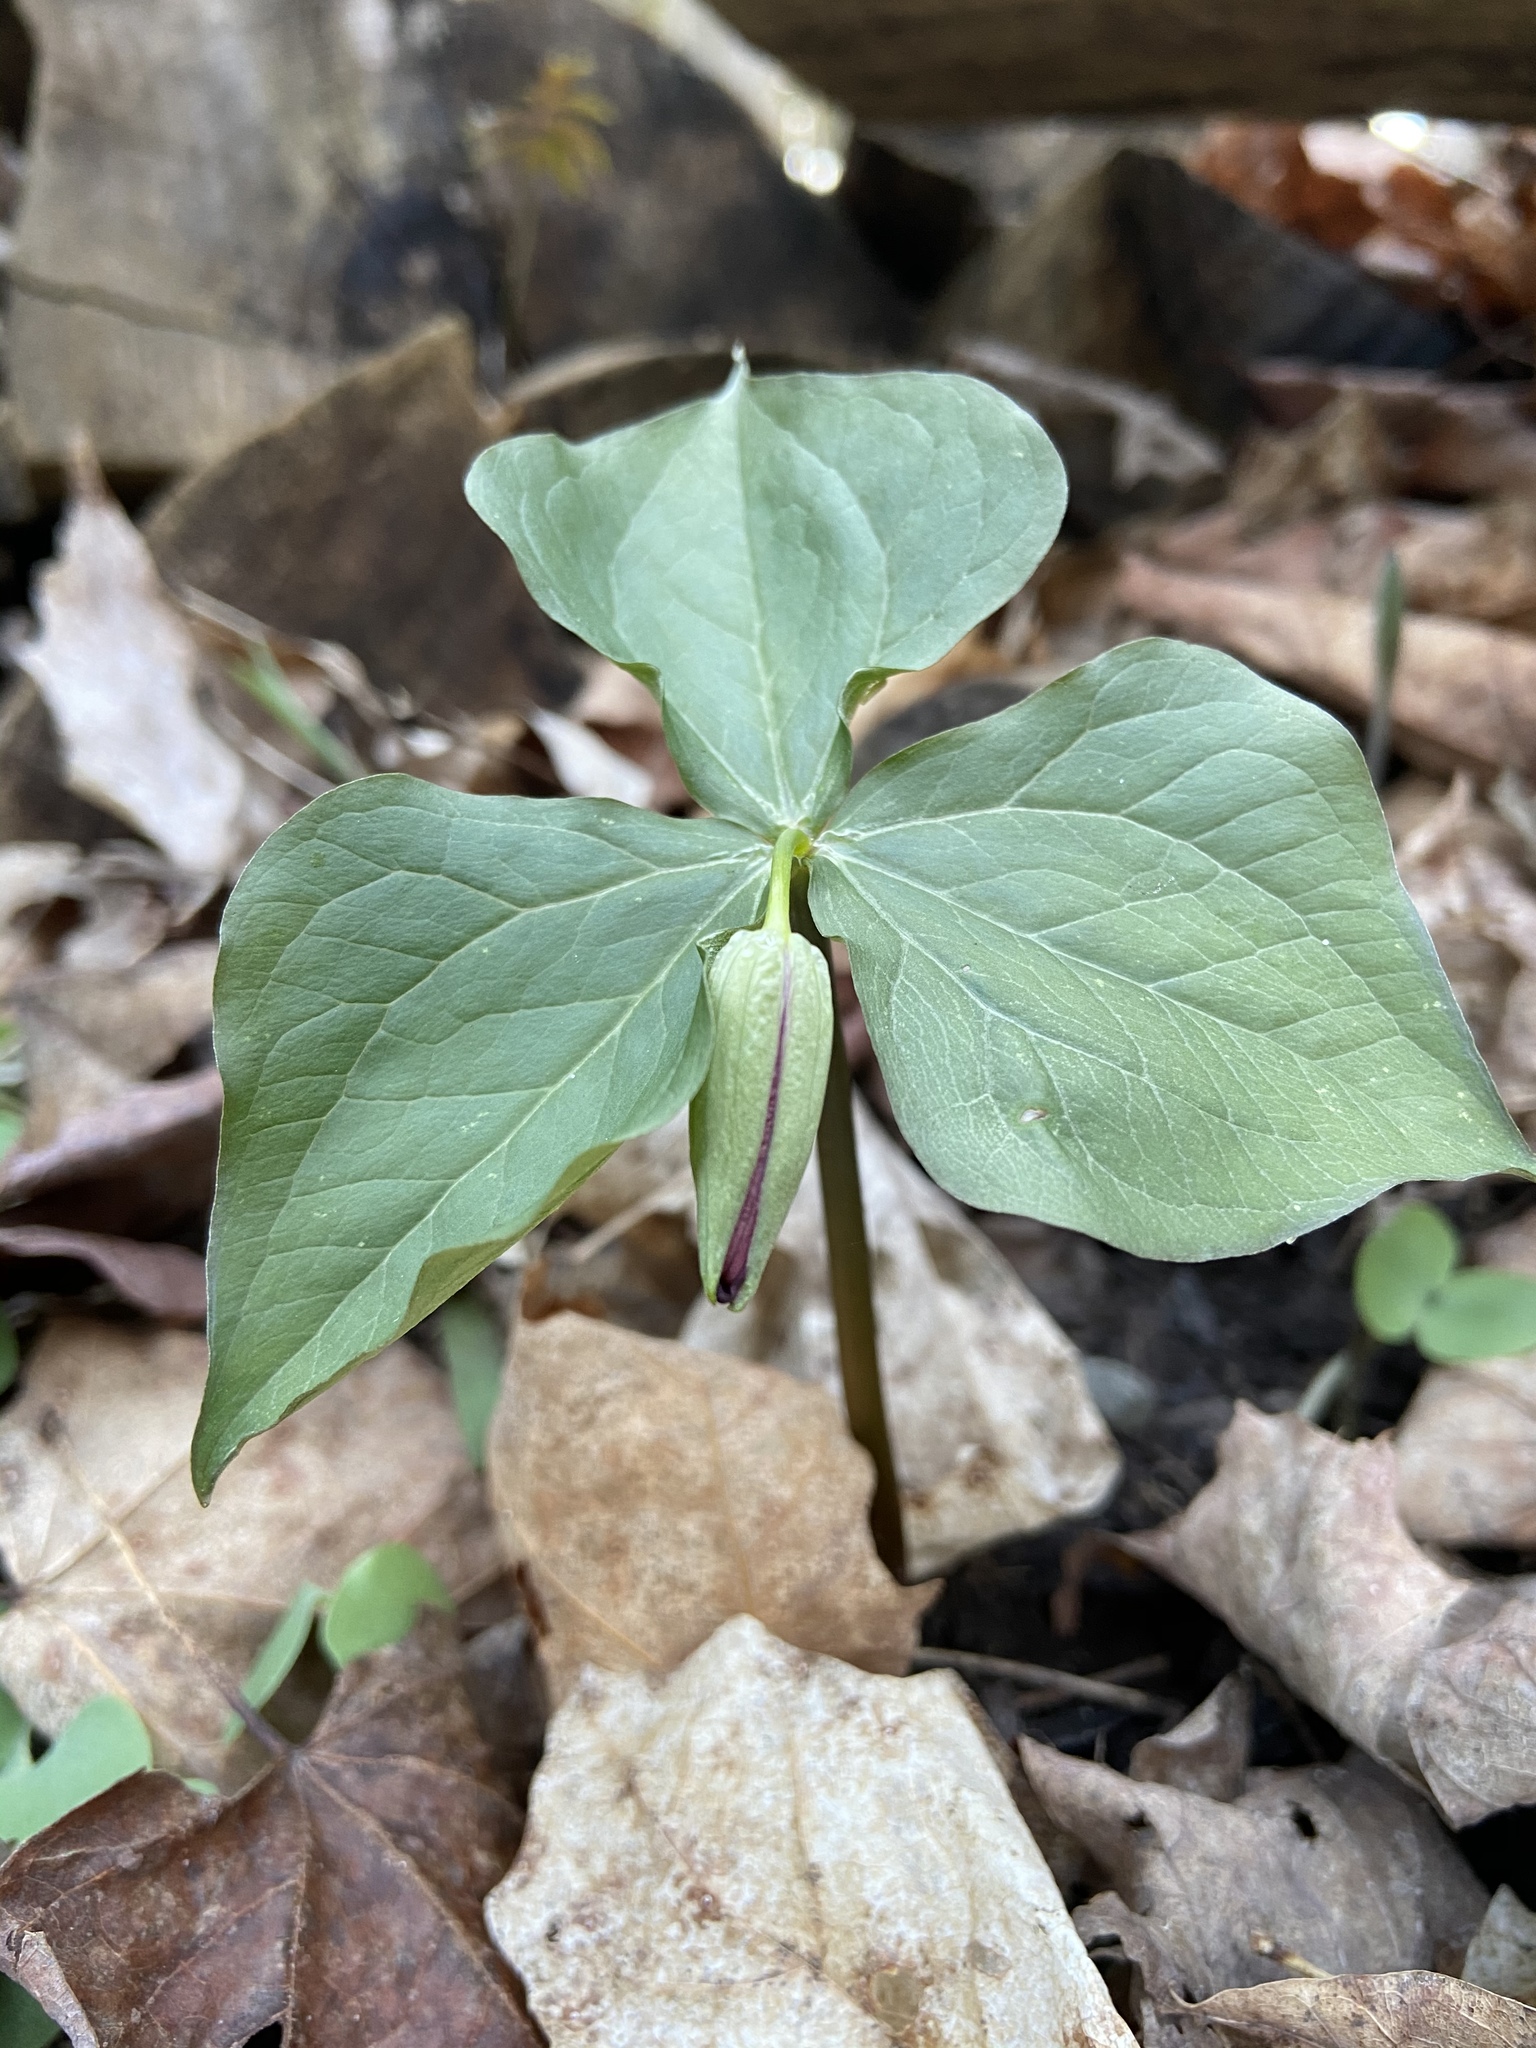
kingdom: Plantae
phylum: Tracheophyta
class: Liliopsida
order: Liliales
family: Melanthiaceae
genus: Trillium
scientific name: Trillium erectum
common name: Purple trillium
